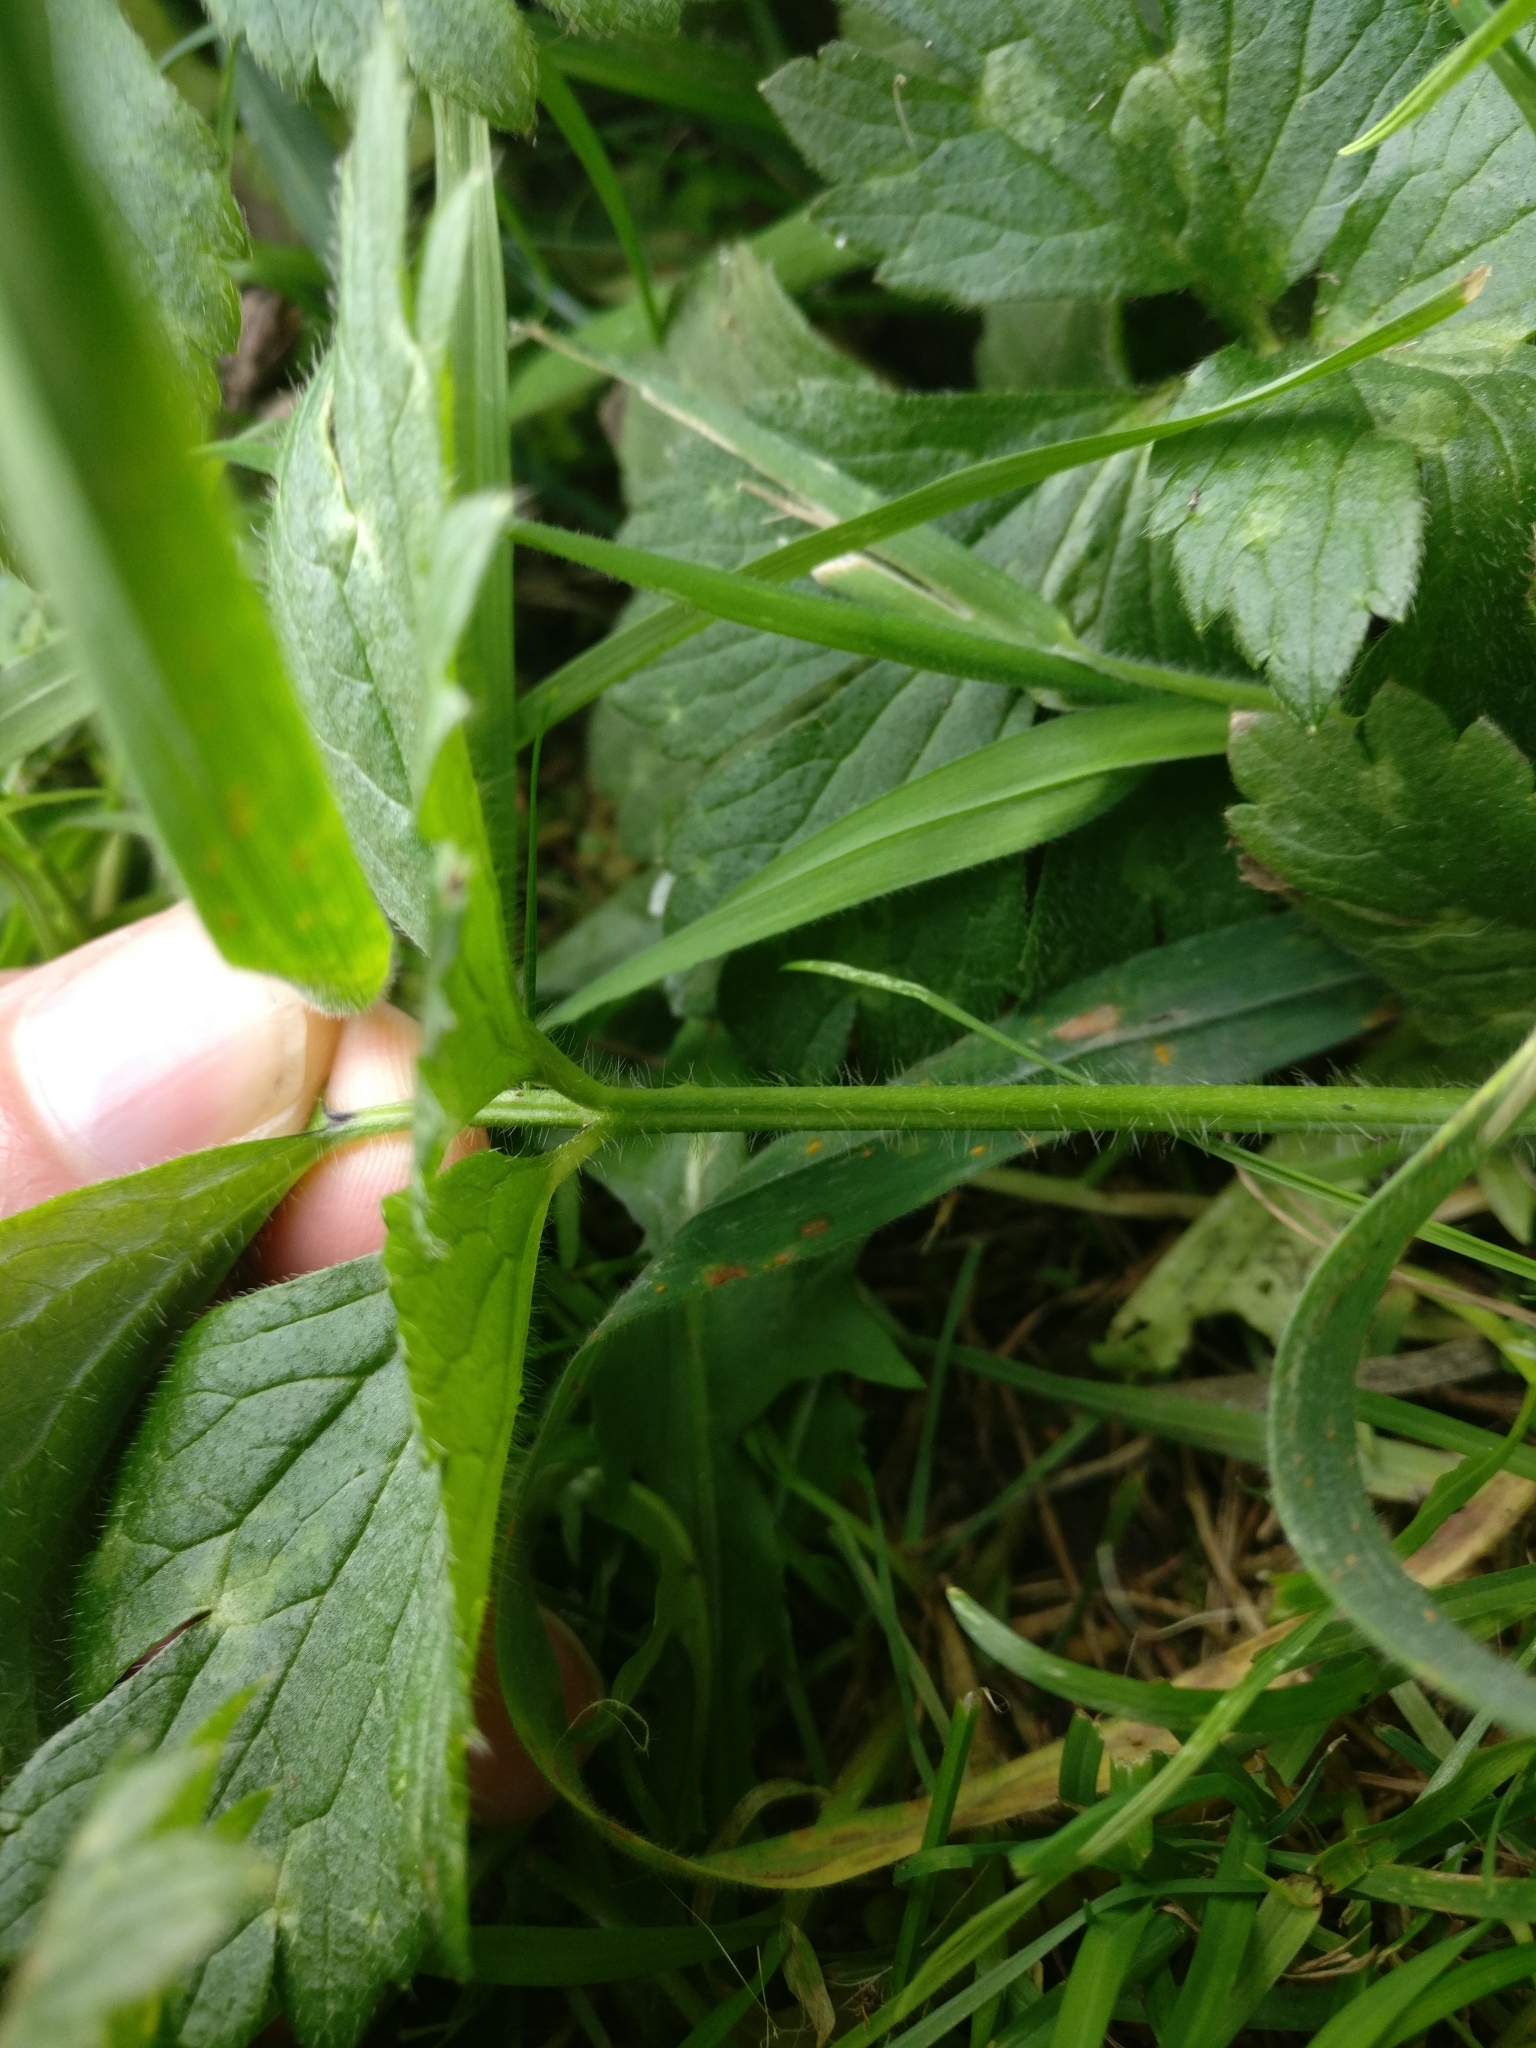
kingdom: Plantae
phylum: Tracheophyta
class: Magnoliopsida
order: Ranunculales
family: Ranunculaceae
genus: Ranunculus
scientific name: Ranunculus repens
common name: Creeping buttercup
